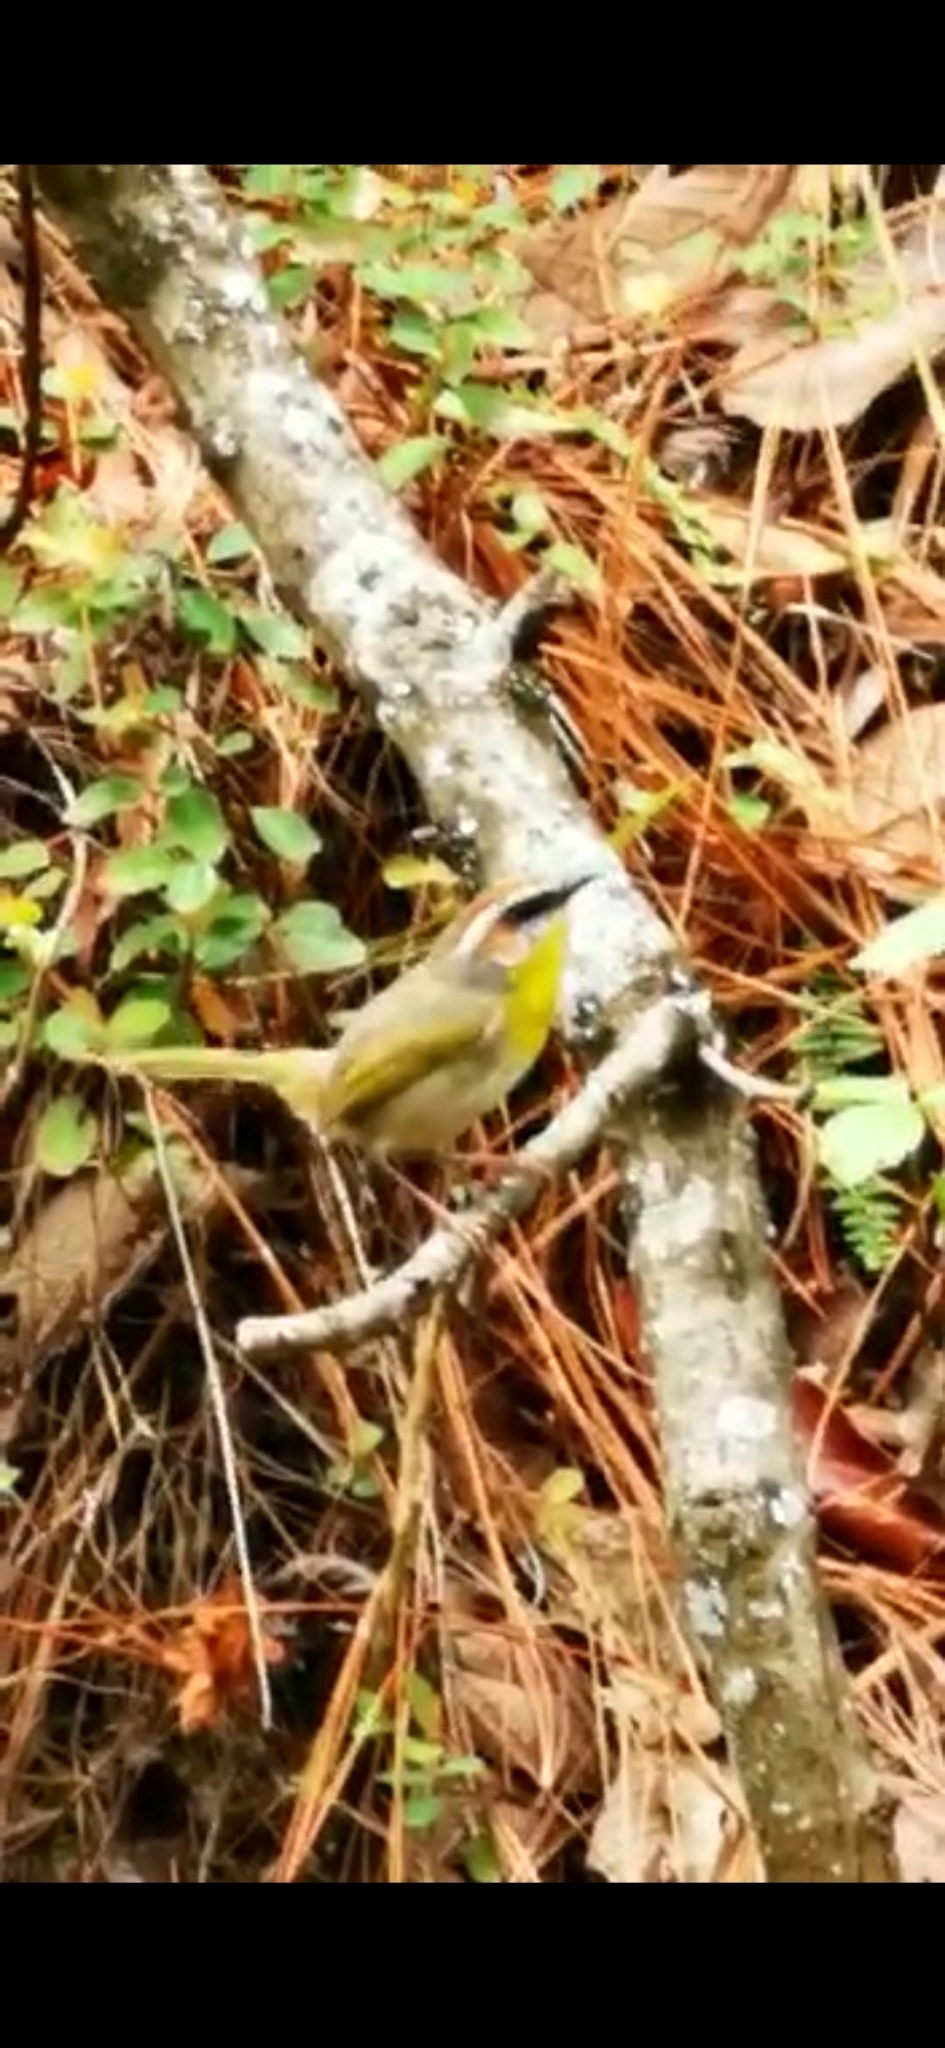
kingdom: Animalia
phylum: Chordata
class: Aves
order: Passeriformes
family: Parulidae
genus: Basileuterus
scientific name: Basileuterus rufifrons
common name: Rufous-capped warbler
